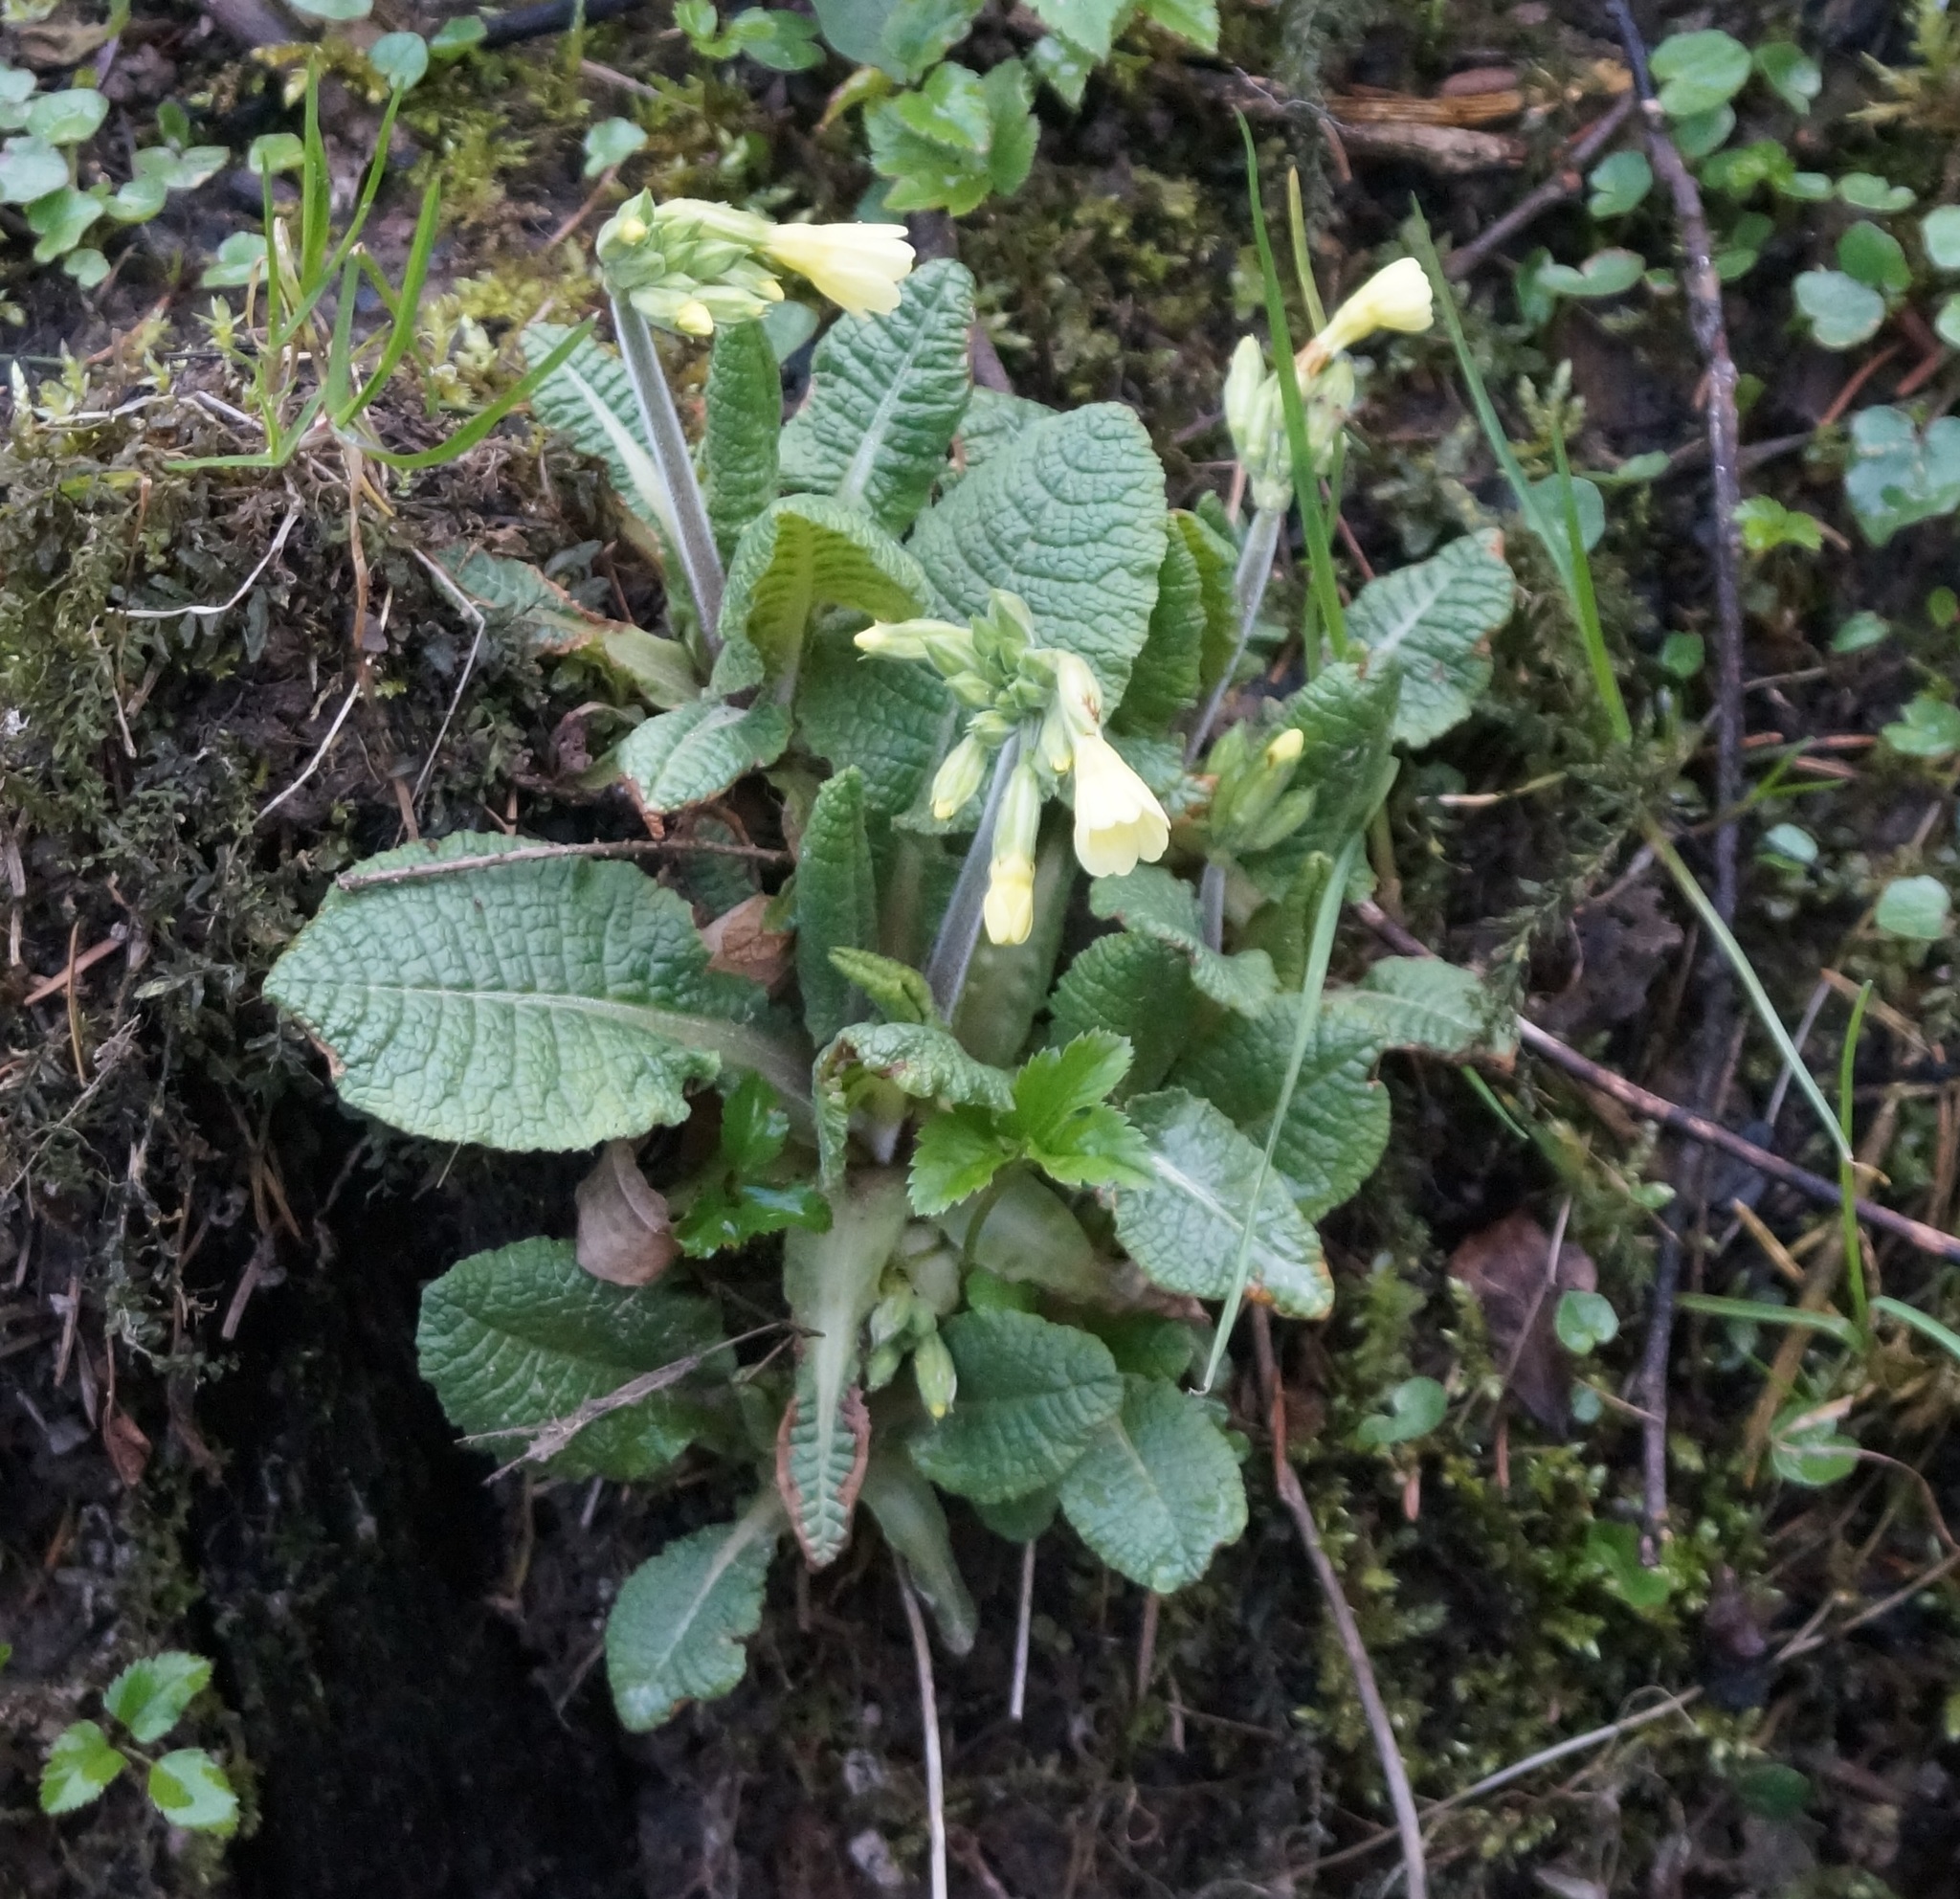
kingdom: Plantae
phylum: Tracheophyta
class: Magnoliopsida
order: Ericales
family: Primulaceae
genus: Primula
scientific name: Primula elatior
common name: Oxlip
